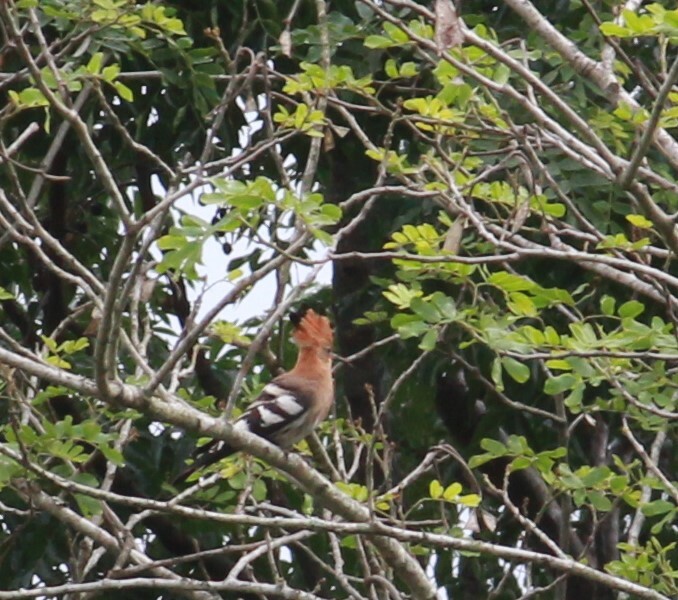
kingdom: Animalia
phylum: Chordata
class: Aves
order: Bucerotiformes
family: Upupidae
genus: Upupa
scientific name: Upupa africana
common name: African hoopoe
